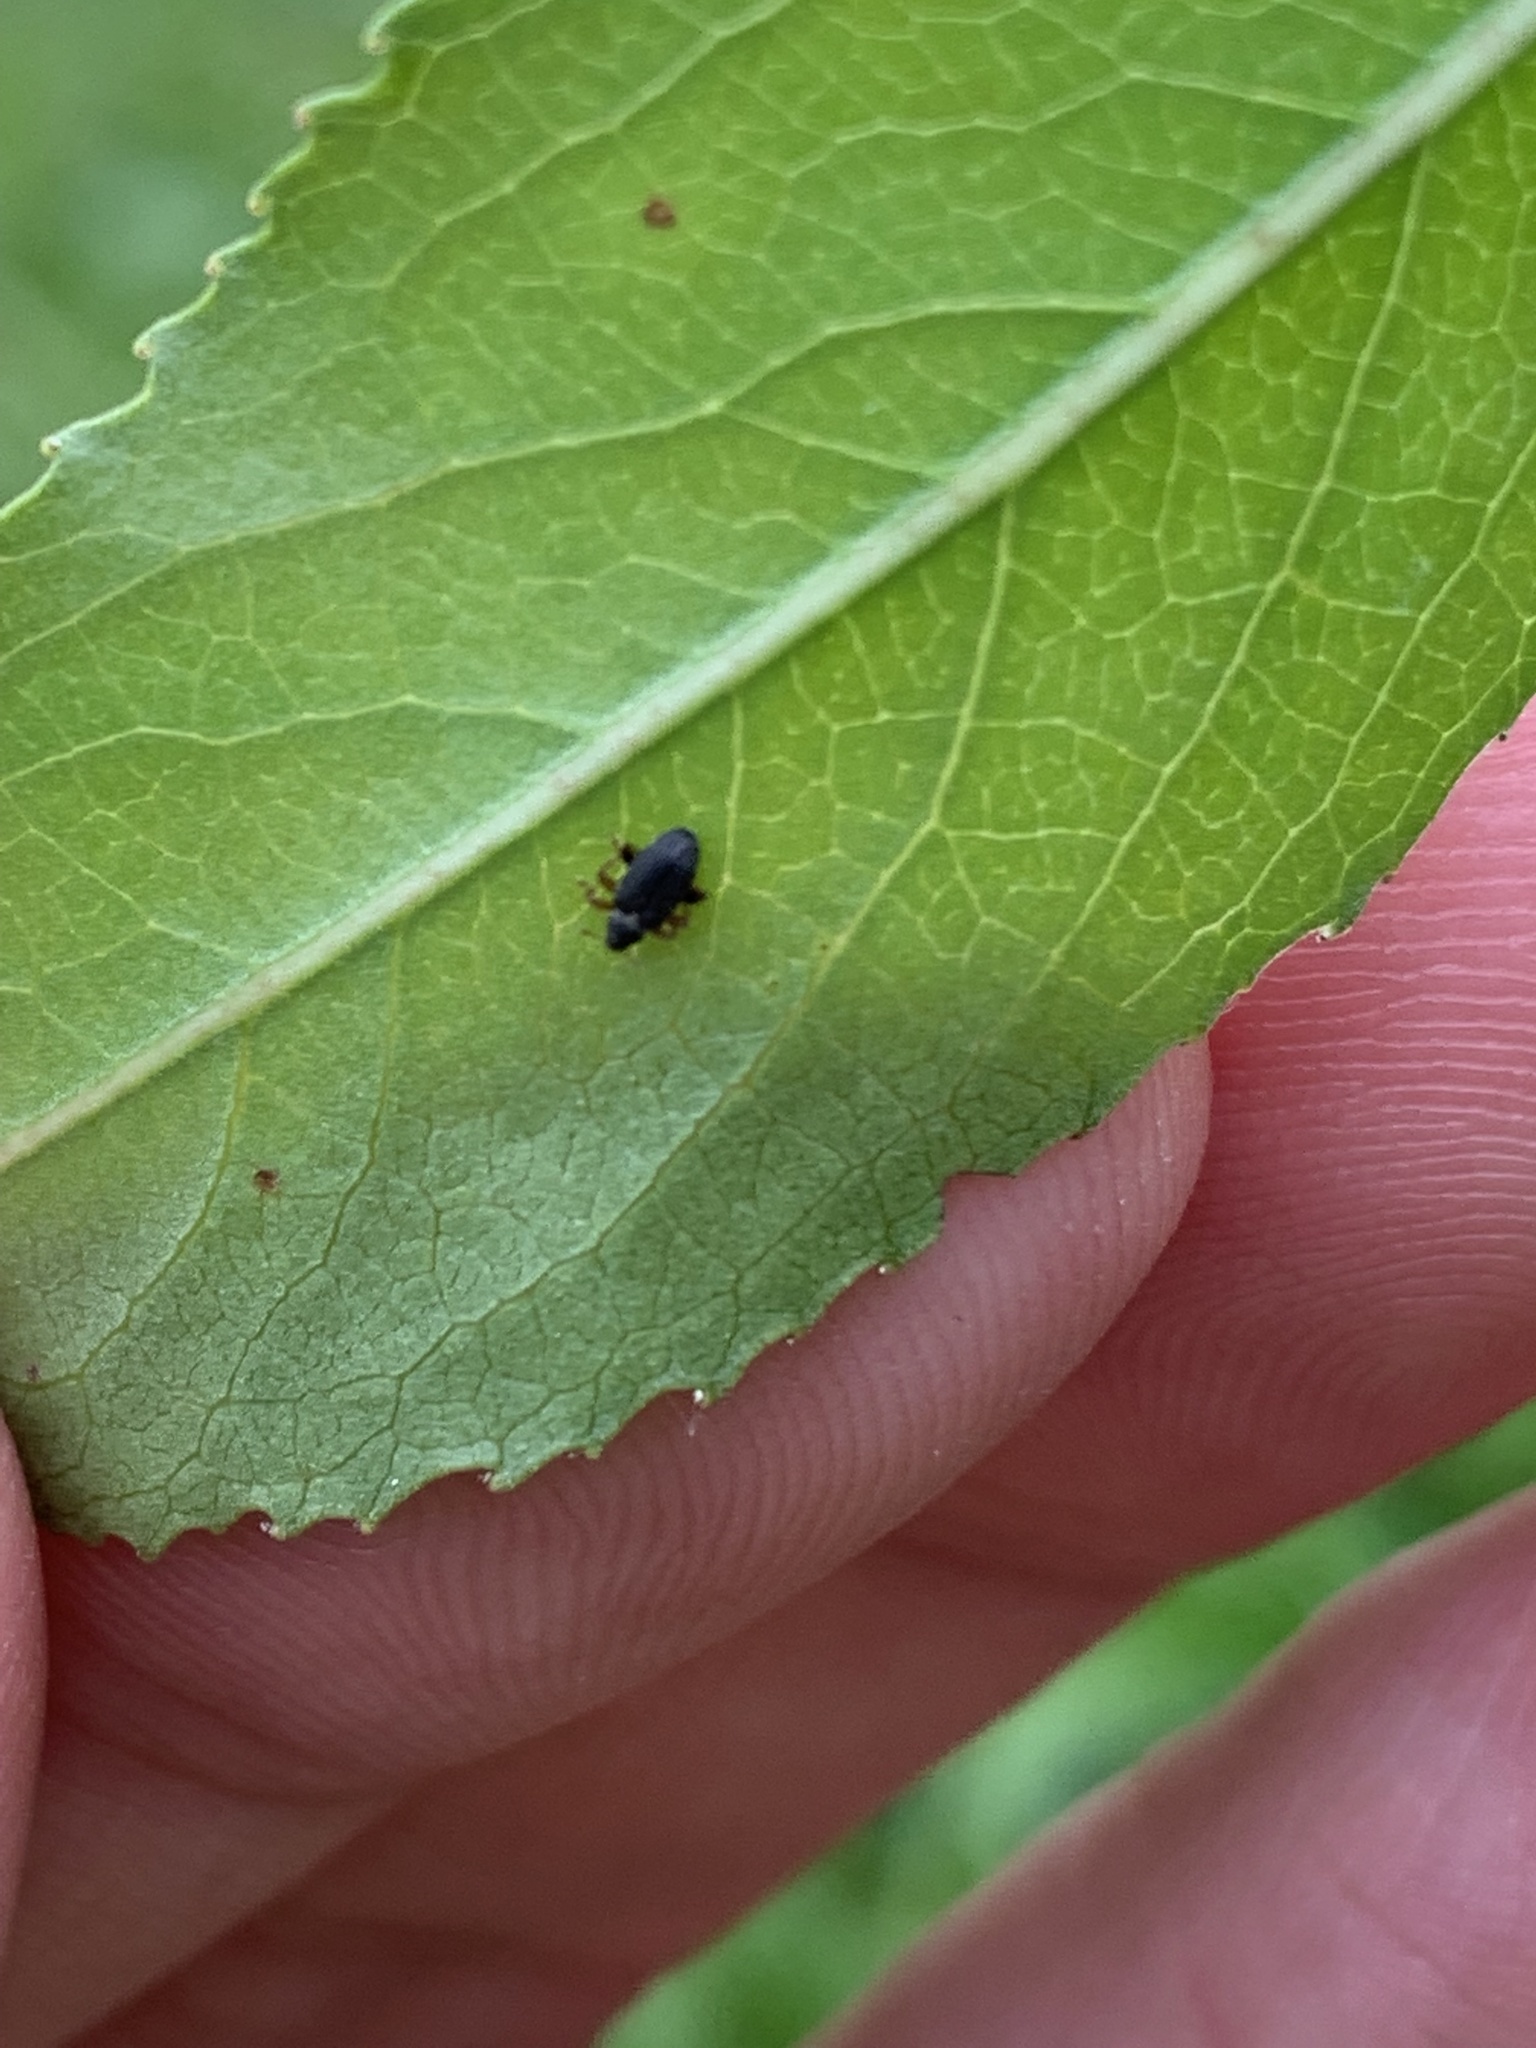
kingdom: Animalia
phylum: Arthropoda
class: Insecta
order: Coleoptera
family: Curculionidae
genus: Isochnus
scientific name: Isochnus sequensi
